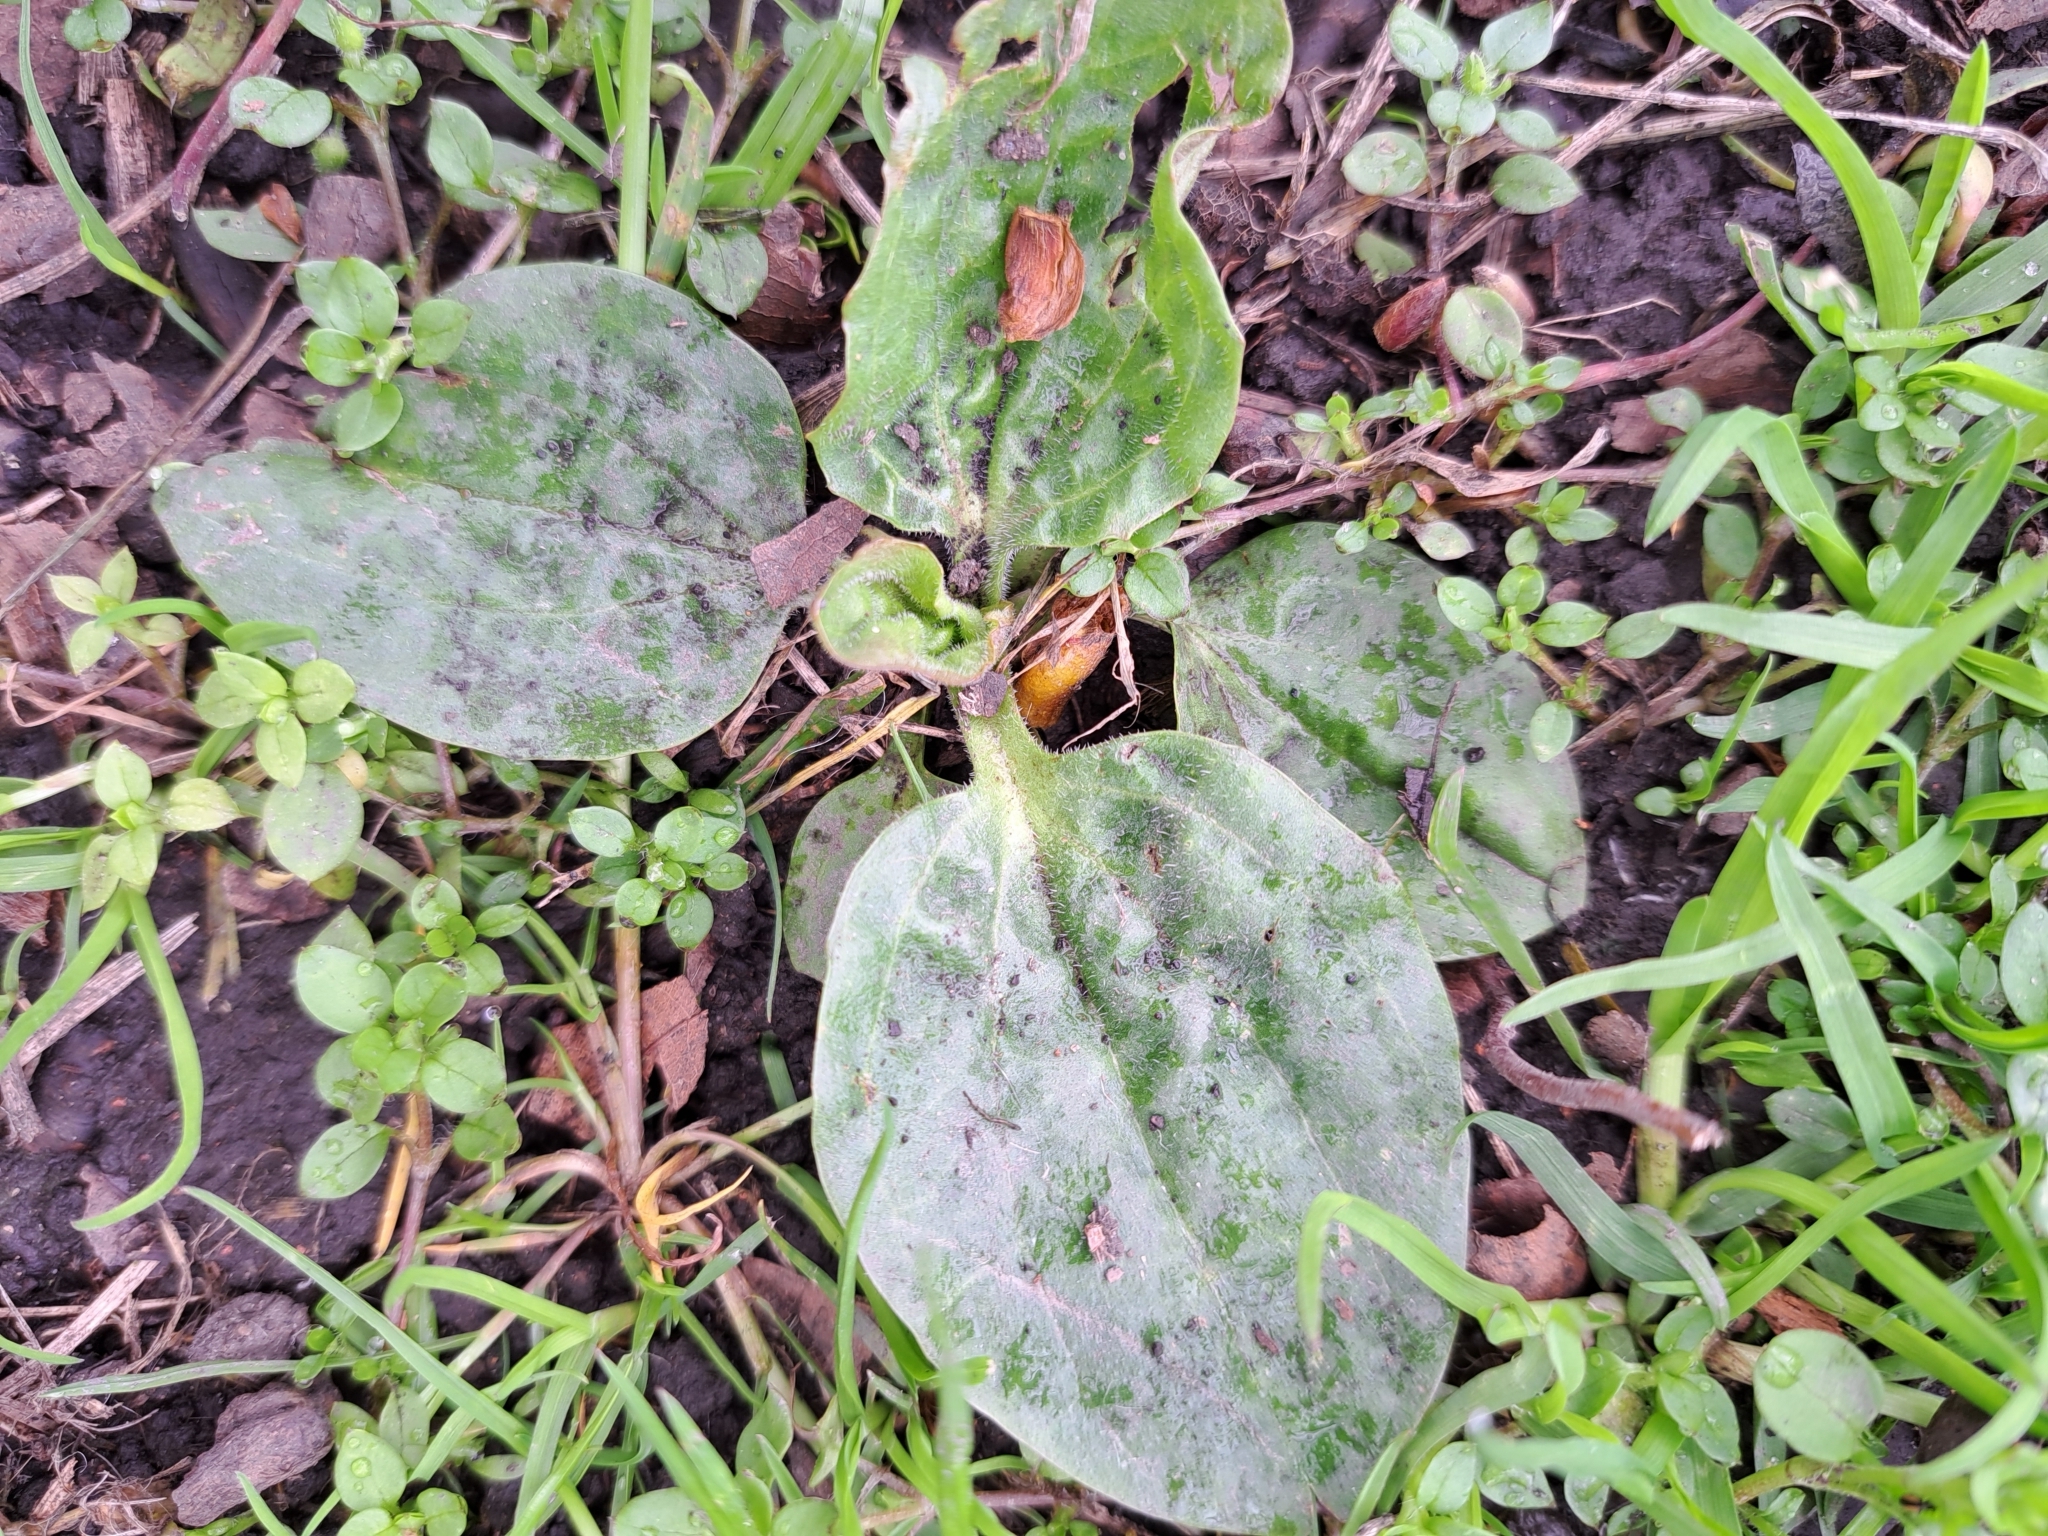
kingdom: Plantae
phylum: Tracheophyta
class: Magnoliopsida
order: Lamiales
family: Plantaginaceae
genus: Plantago
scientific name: Plantago major
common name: Common plantain
